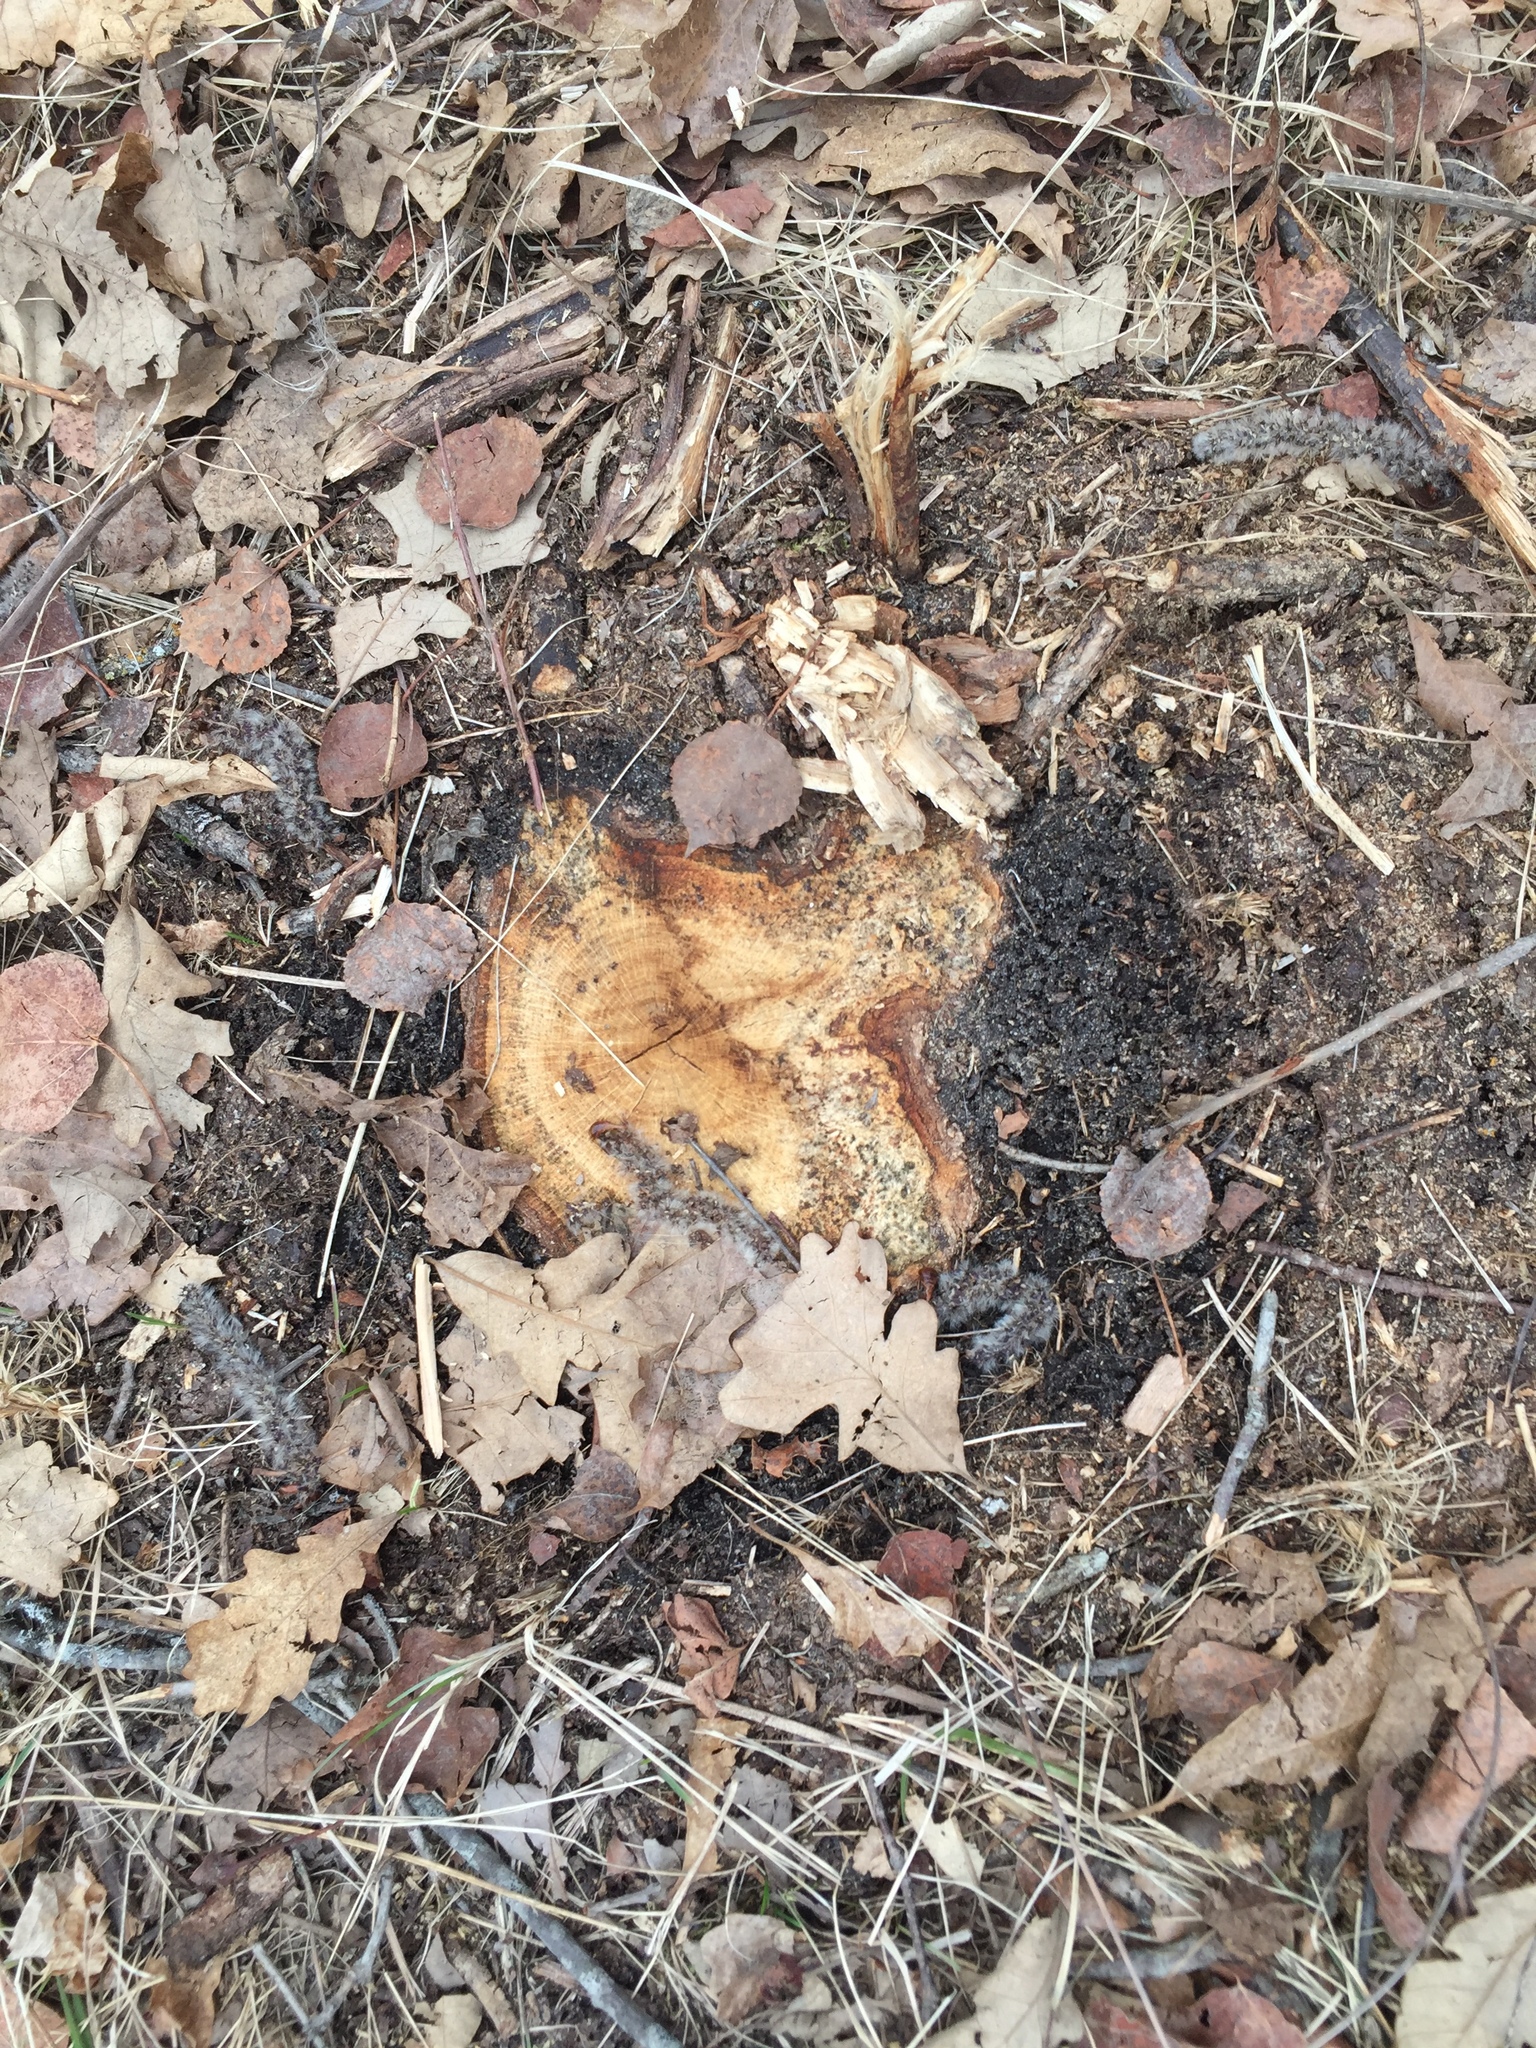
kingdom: Plantae
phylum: Tracheophyta
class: Magnoliopsida
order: Fagales
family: Fagaceae
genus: Quercus
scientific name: Quercus macrocarpa
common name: Bur oak
